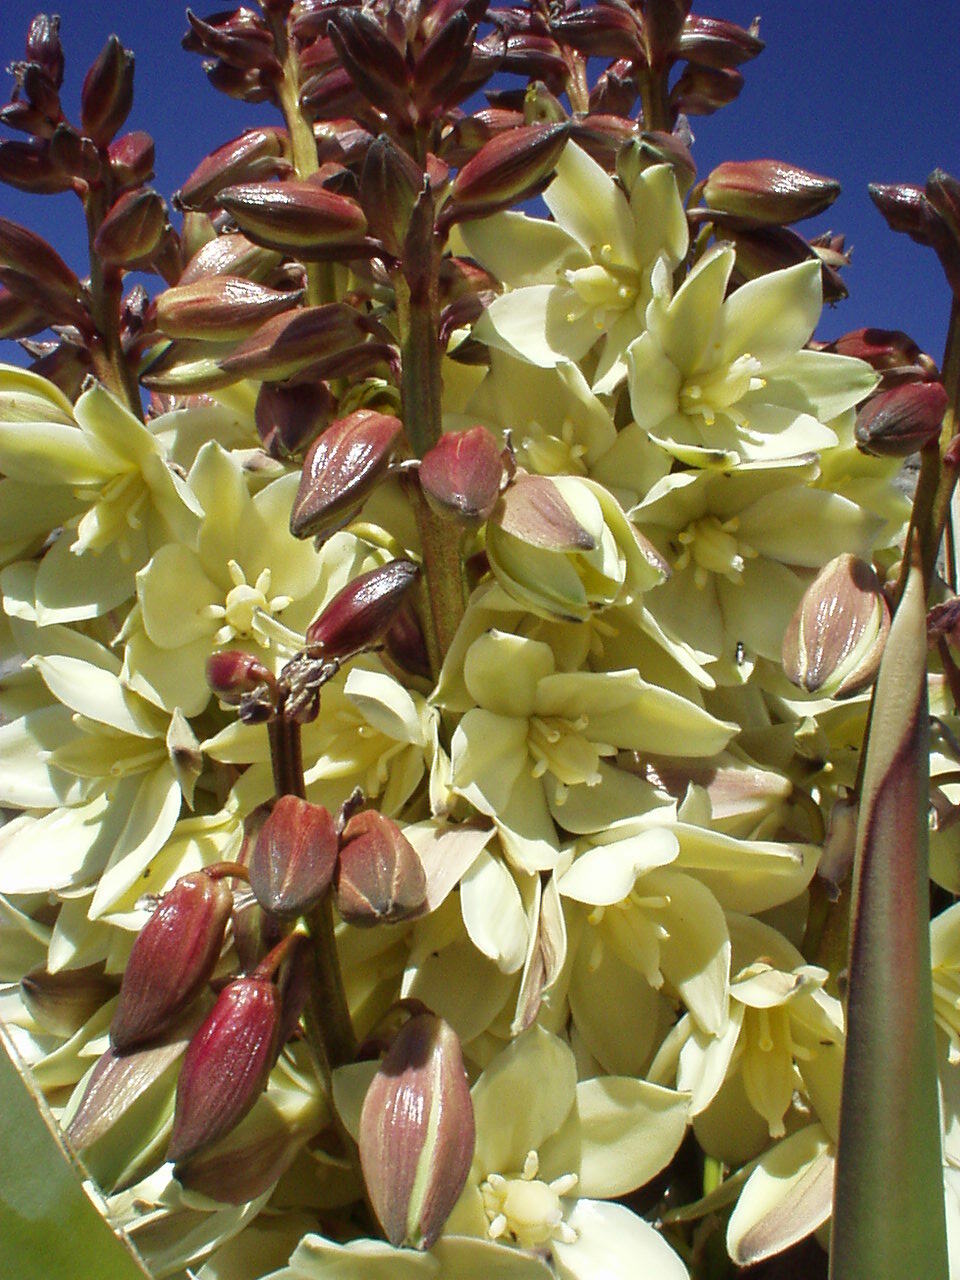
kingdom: Plantae
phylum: Tracheophyta
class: Liliopsida
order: Asparagales
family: Asparagaceae
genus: Yucca
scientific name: Yucca schidigera
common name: Mojave yucca
